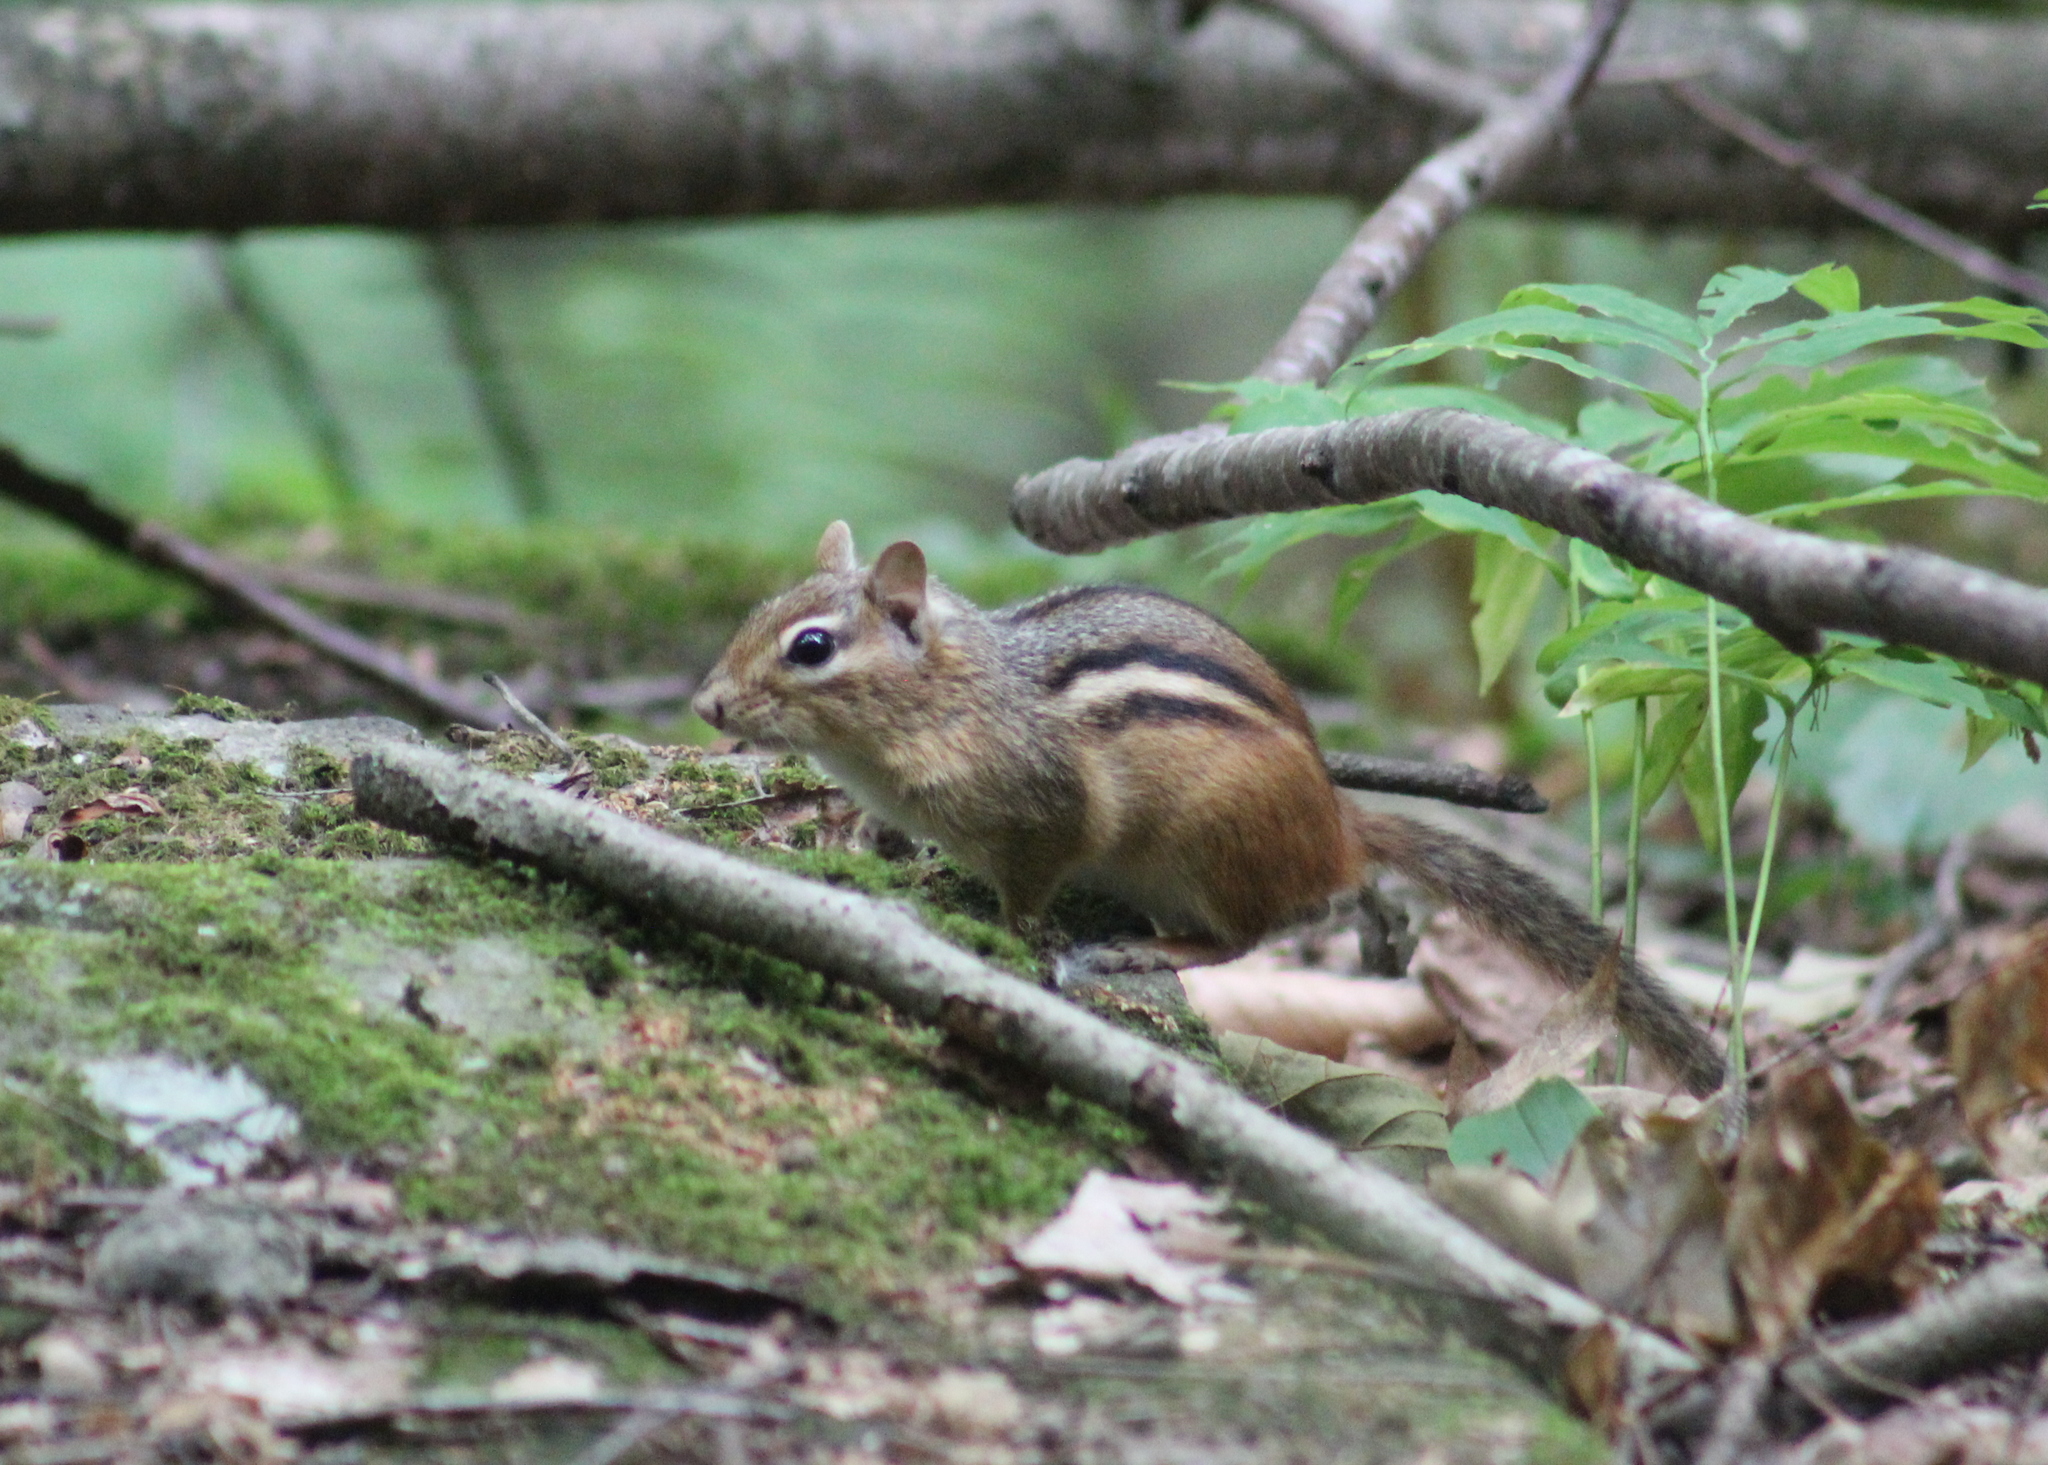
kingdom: Animalia
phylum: Chordata
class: Mammalia
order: Rodentia
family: Sciuridae
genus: Tamias
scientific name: Tamias striatus
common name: Eastern chipmunk
